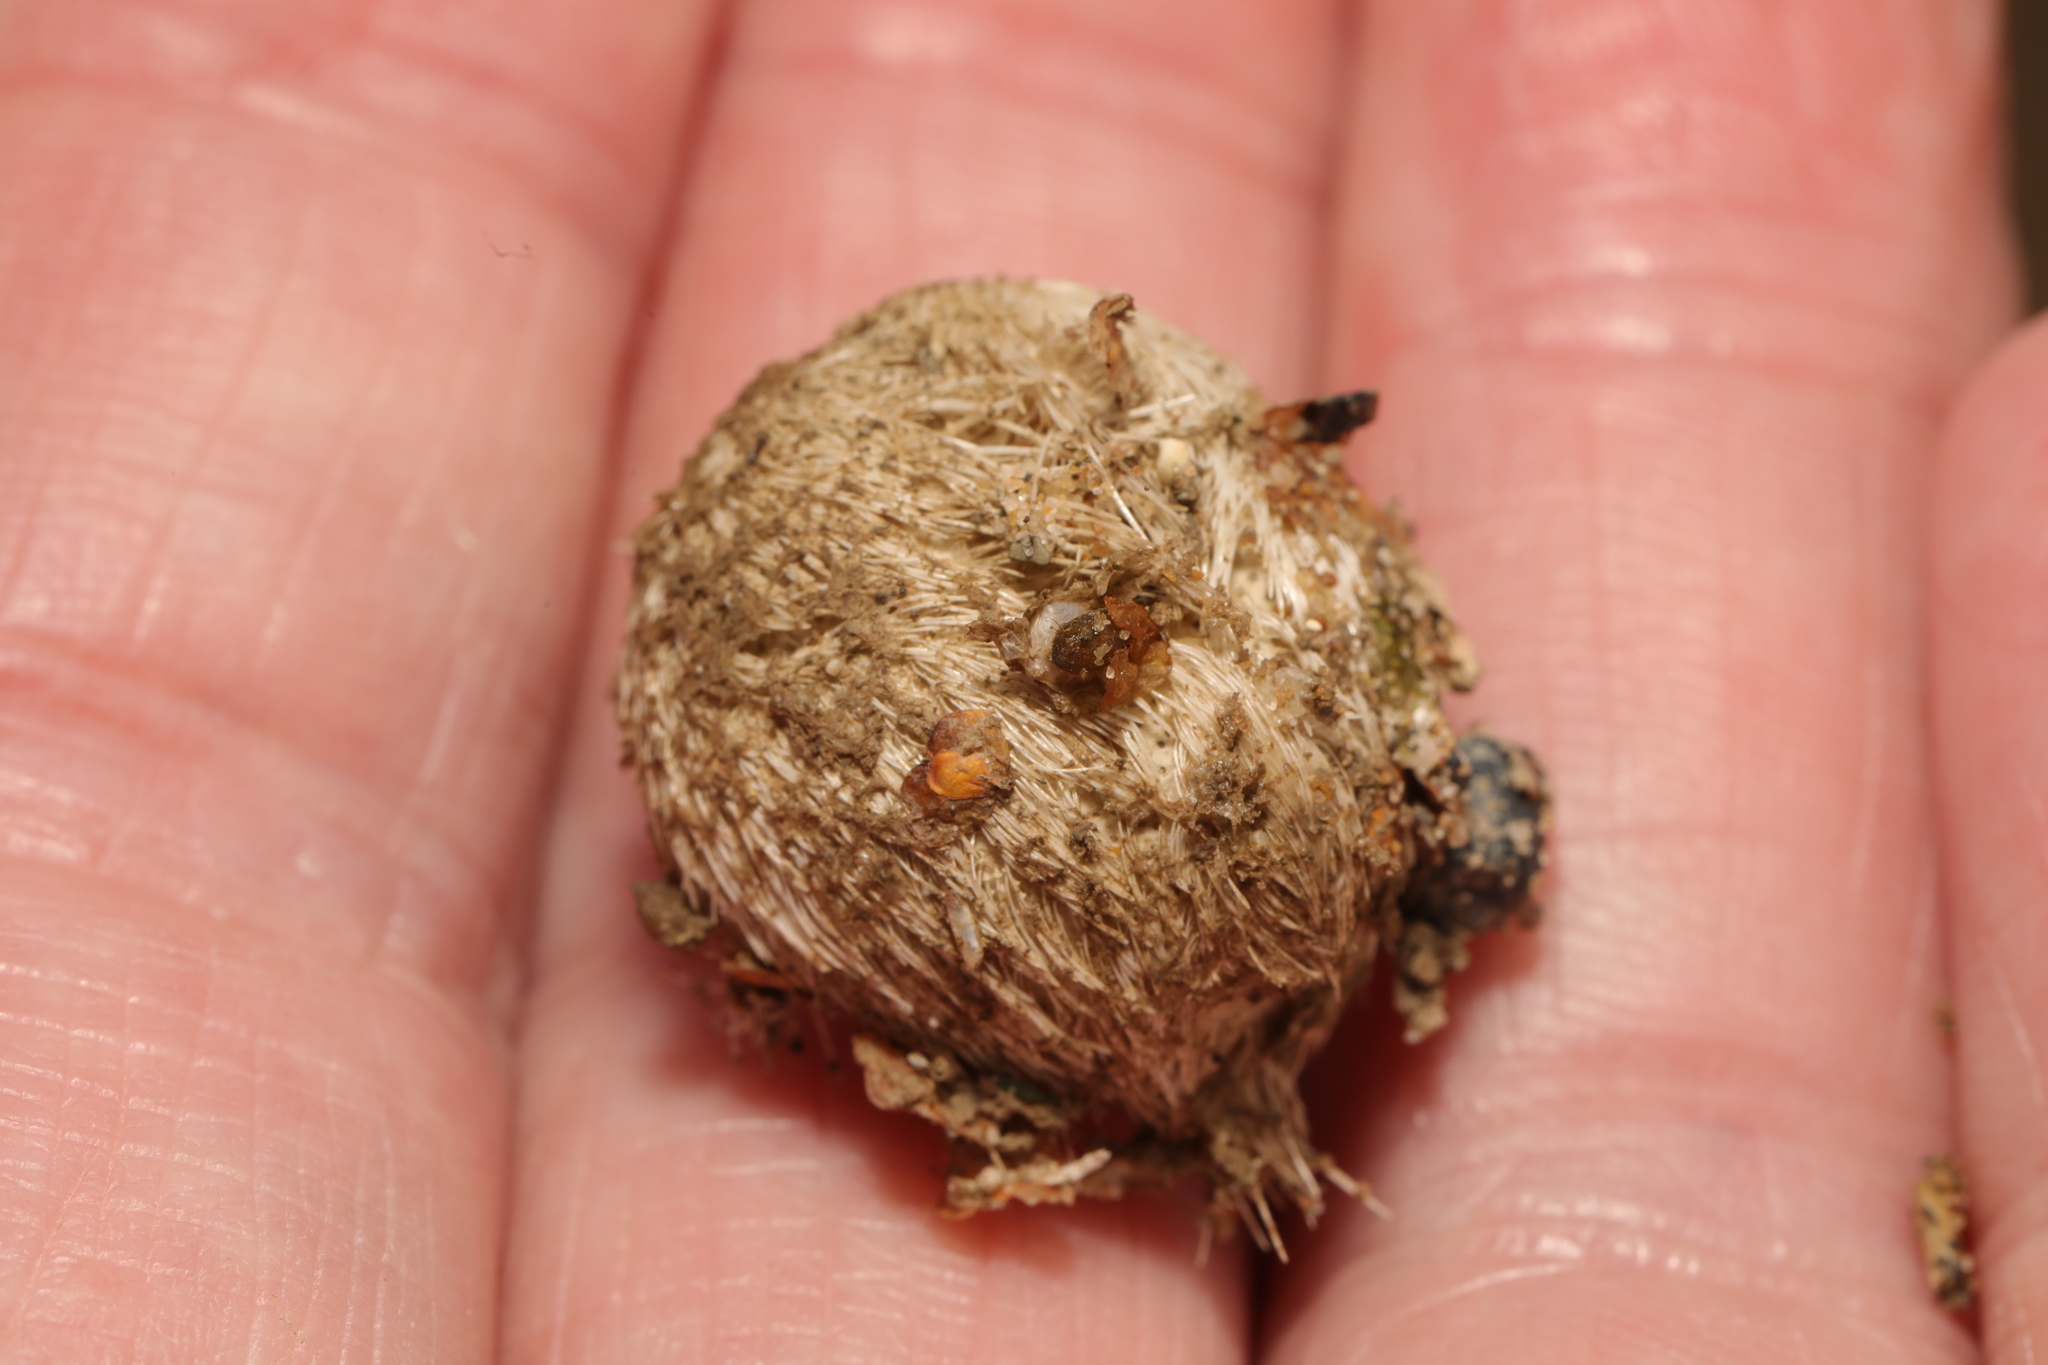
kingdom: Animalia
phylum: Echinodermata
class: Echinoidea
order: Spatangoida
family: Loveniidae
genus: Echinocardium
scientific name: Echinocardium cordatum
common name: Heart-urchin
